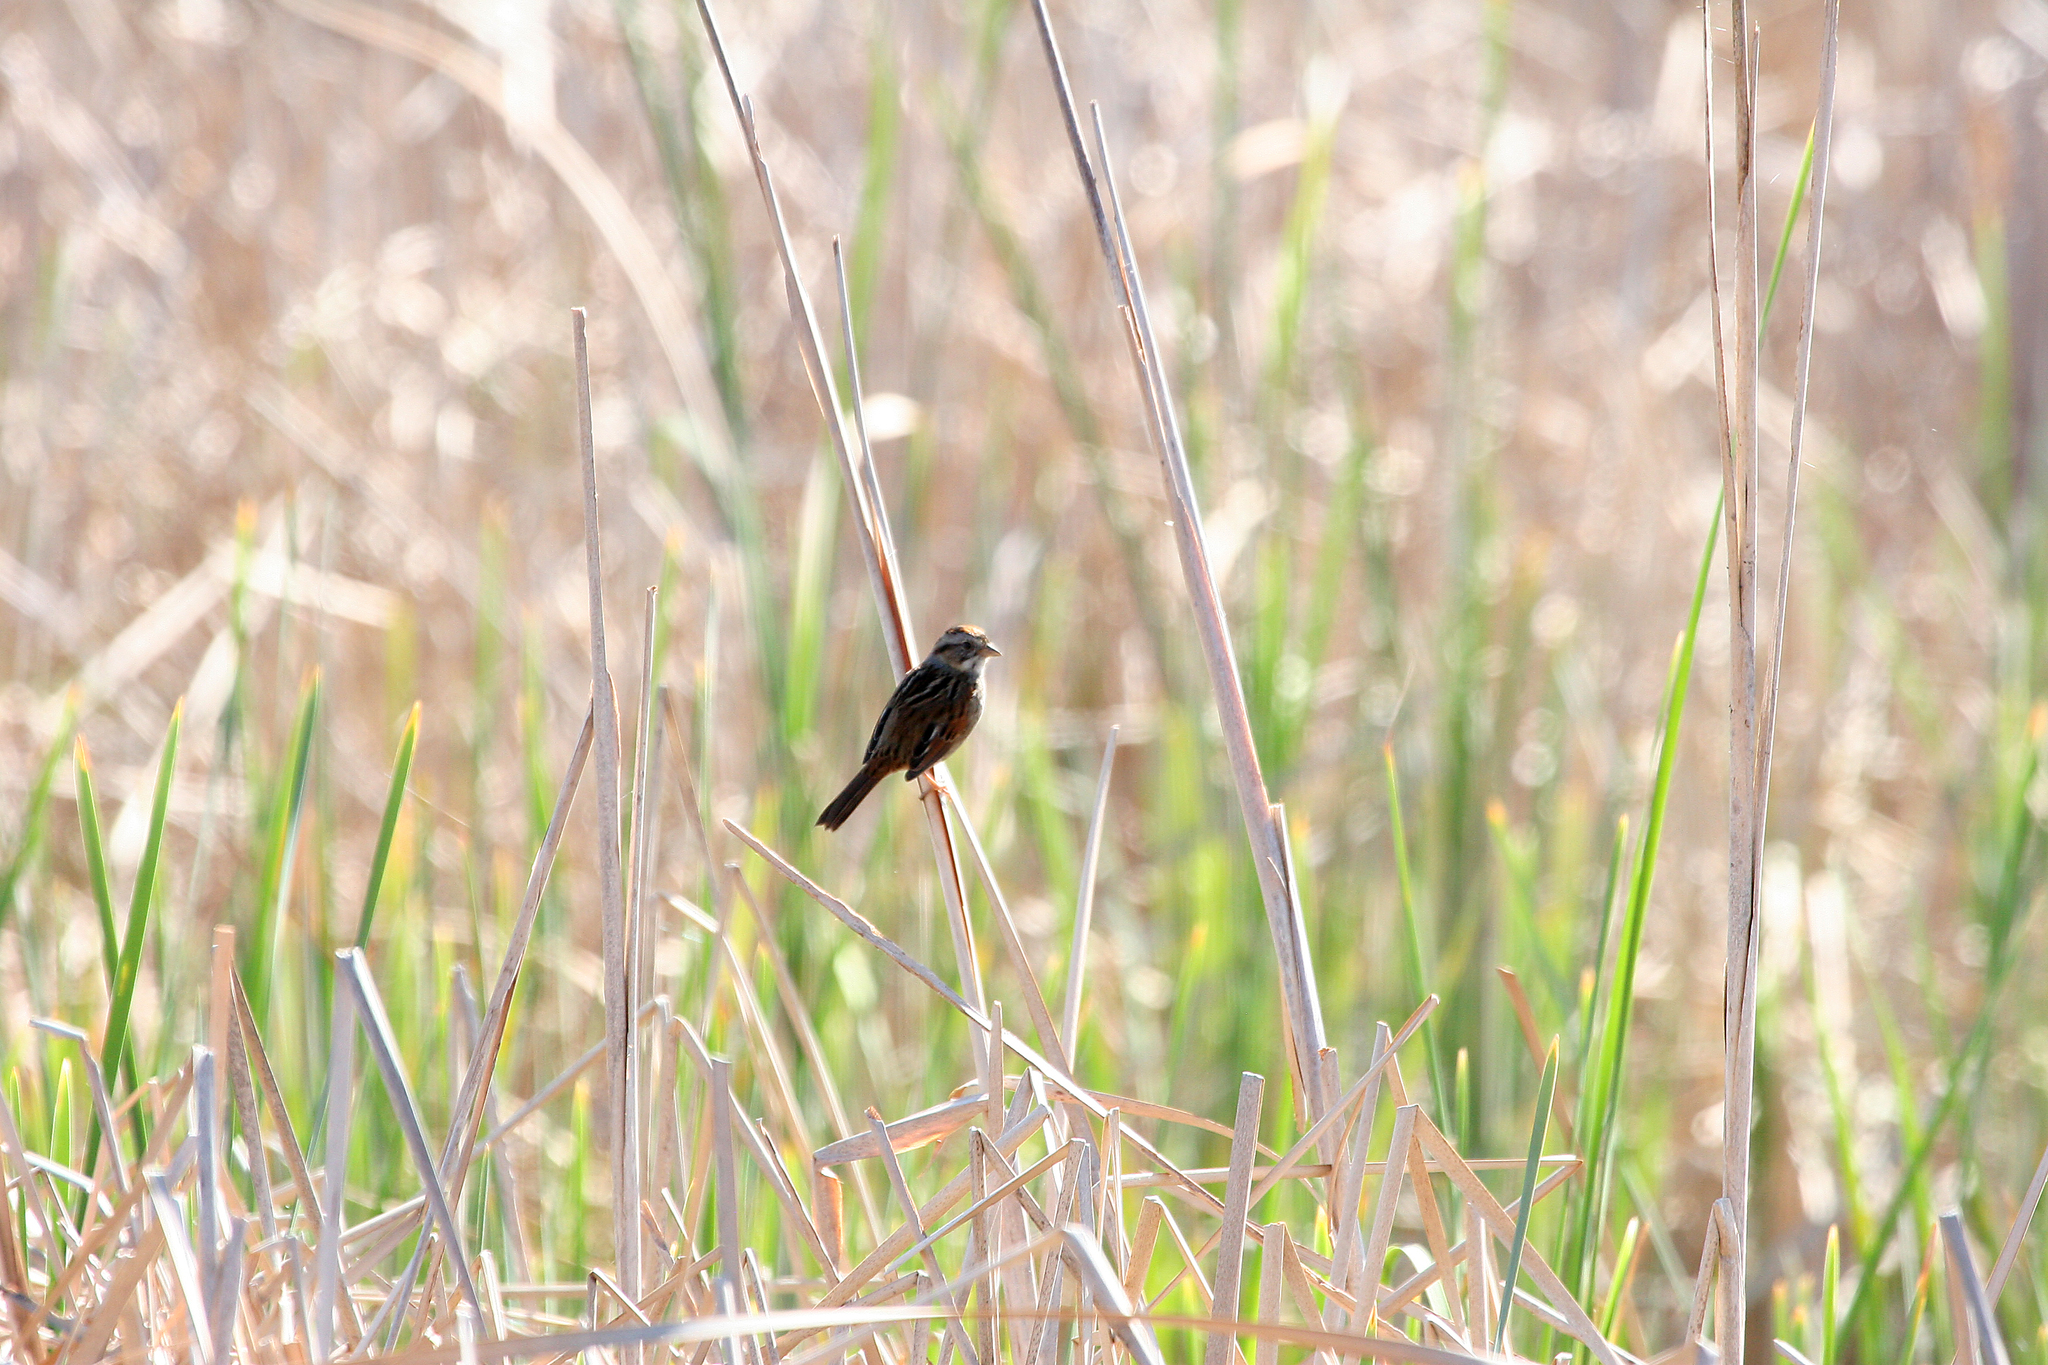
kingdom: Animalia
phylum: Chordata
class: Aves
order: Passeriformes
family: Passerellidae
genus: Melospiza
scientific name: Melospiza georgiana
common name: Swamp sparrow
